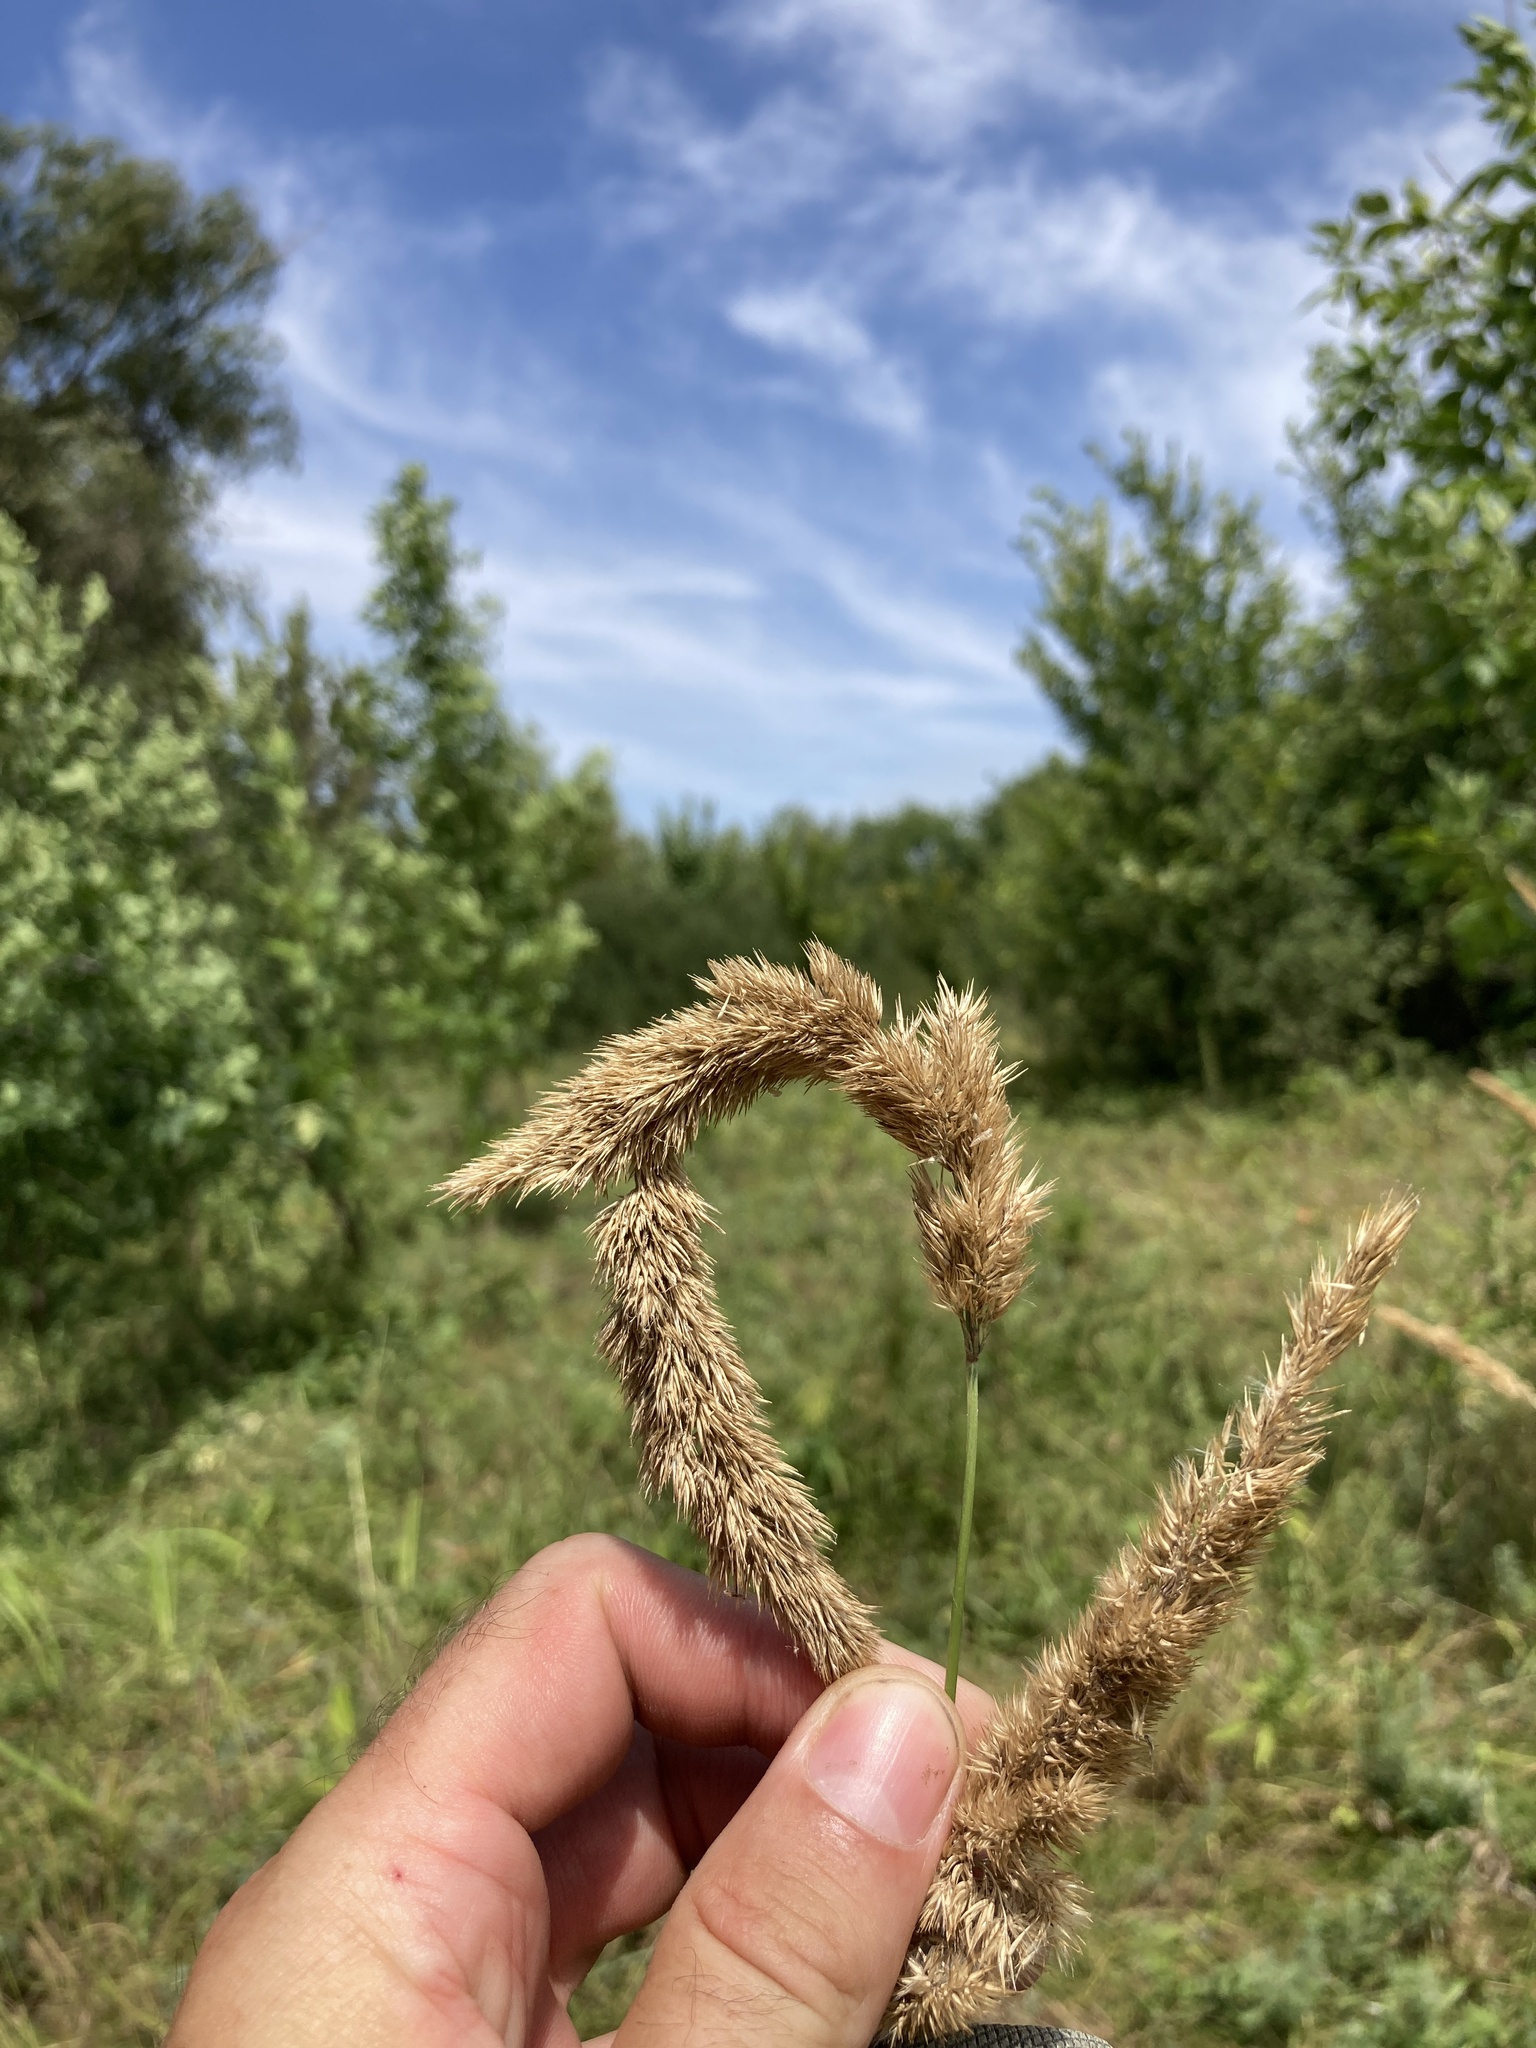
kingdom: Plantae
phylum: Tracheophyta
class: Liliopsida
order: Poales
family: Poaceae
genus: Calamagrostis
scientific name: Calamagrostis epigejos
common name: Wood small-reed
